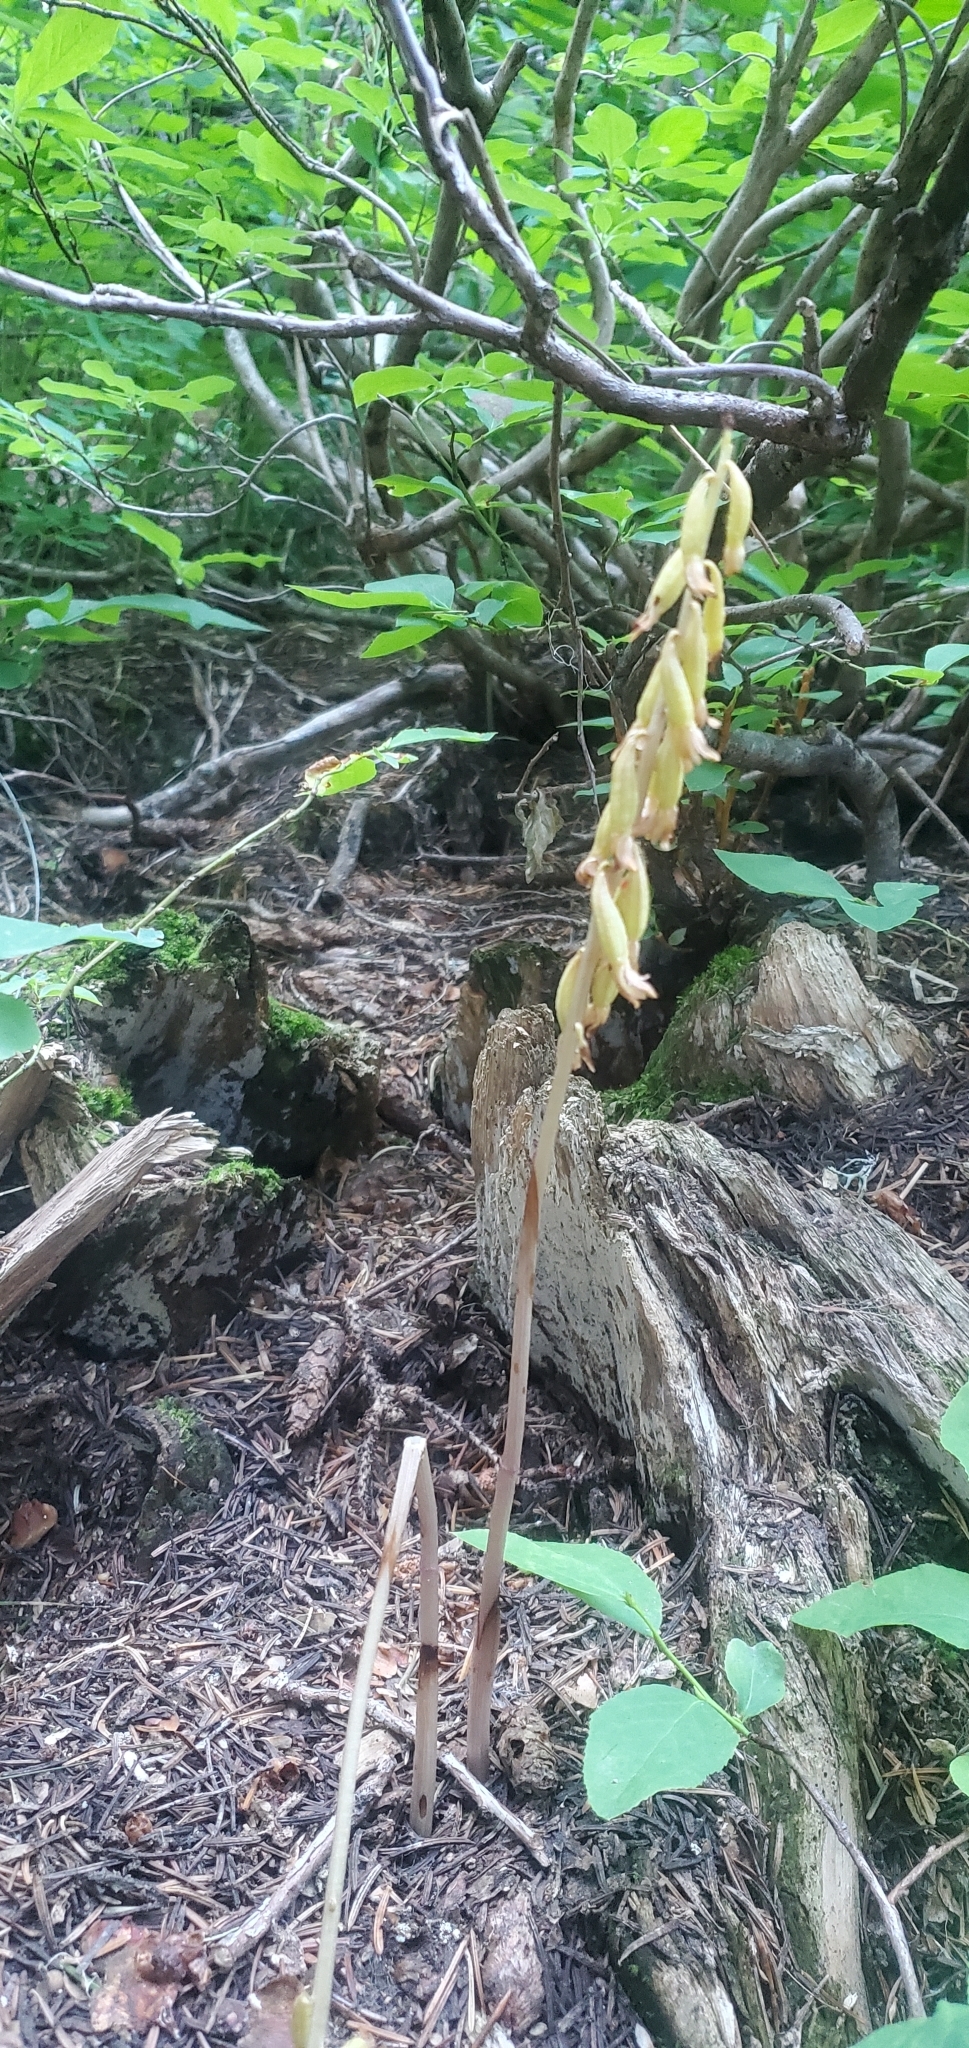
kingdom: Plantae
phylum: Tracheophyta
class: Liliopsida
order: Asparagales
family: Orchidaceae
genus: Corallorhiza
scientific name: Corallorhiza trifida
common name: Yellow coralroot
